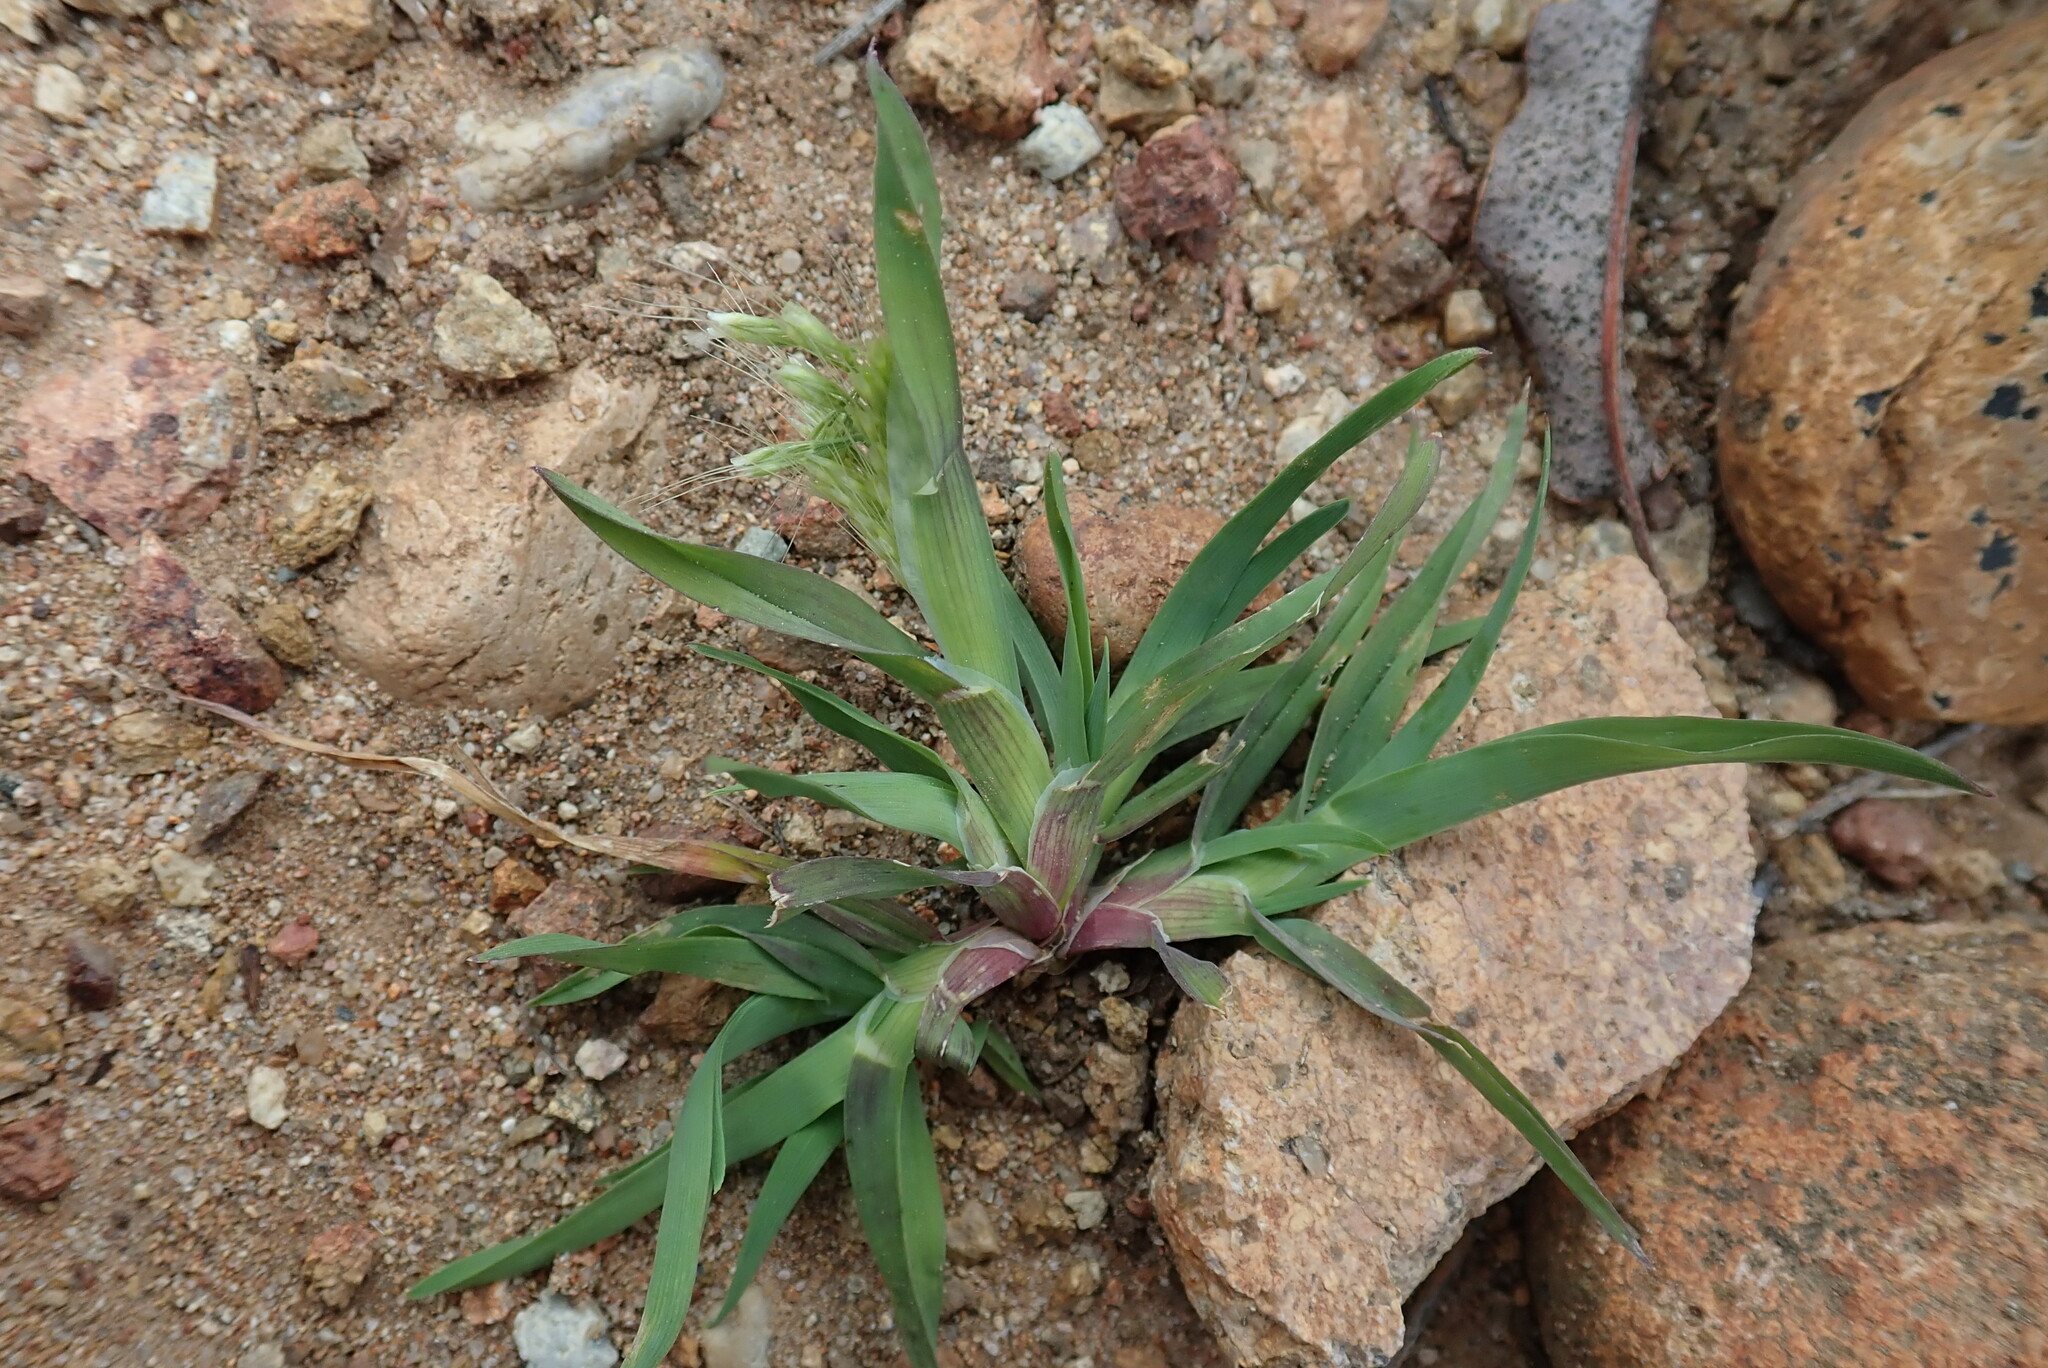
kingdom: Plantae
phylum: Tracheophyta
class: Liliopsida
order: Poales
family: Poaceae
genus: Lamarckia
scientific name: Lamarckia aurea
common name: Golden dog's-tail
